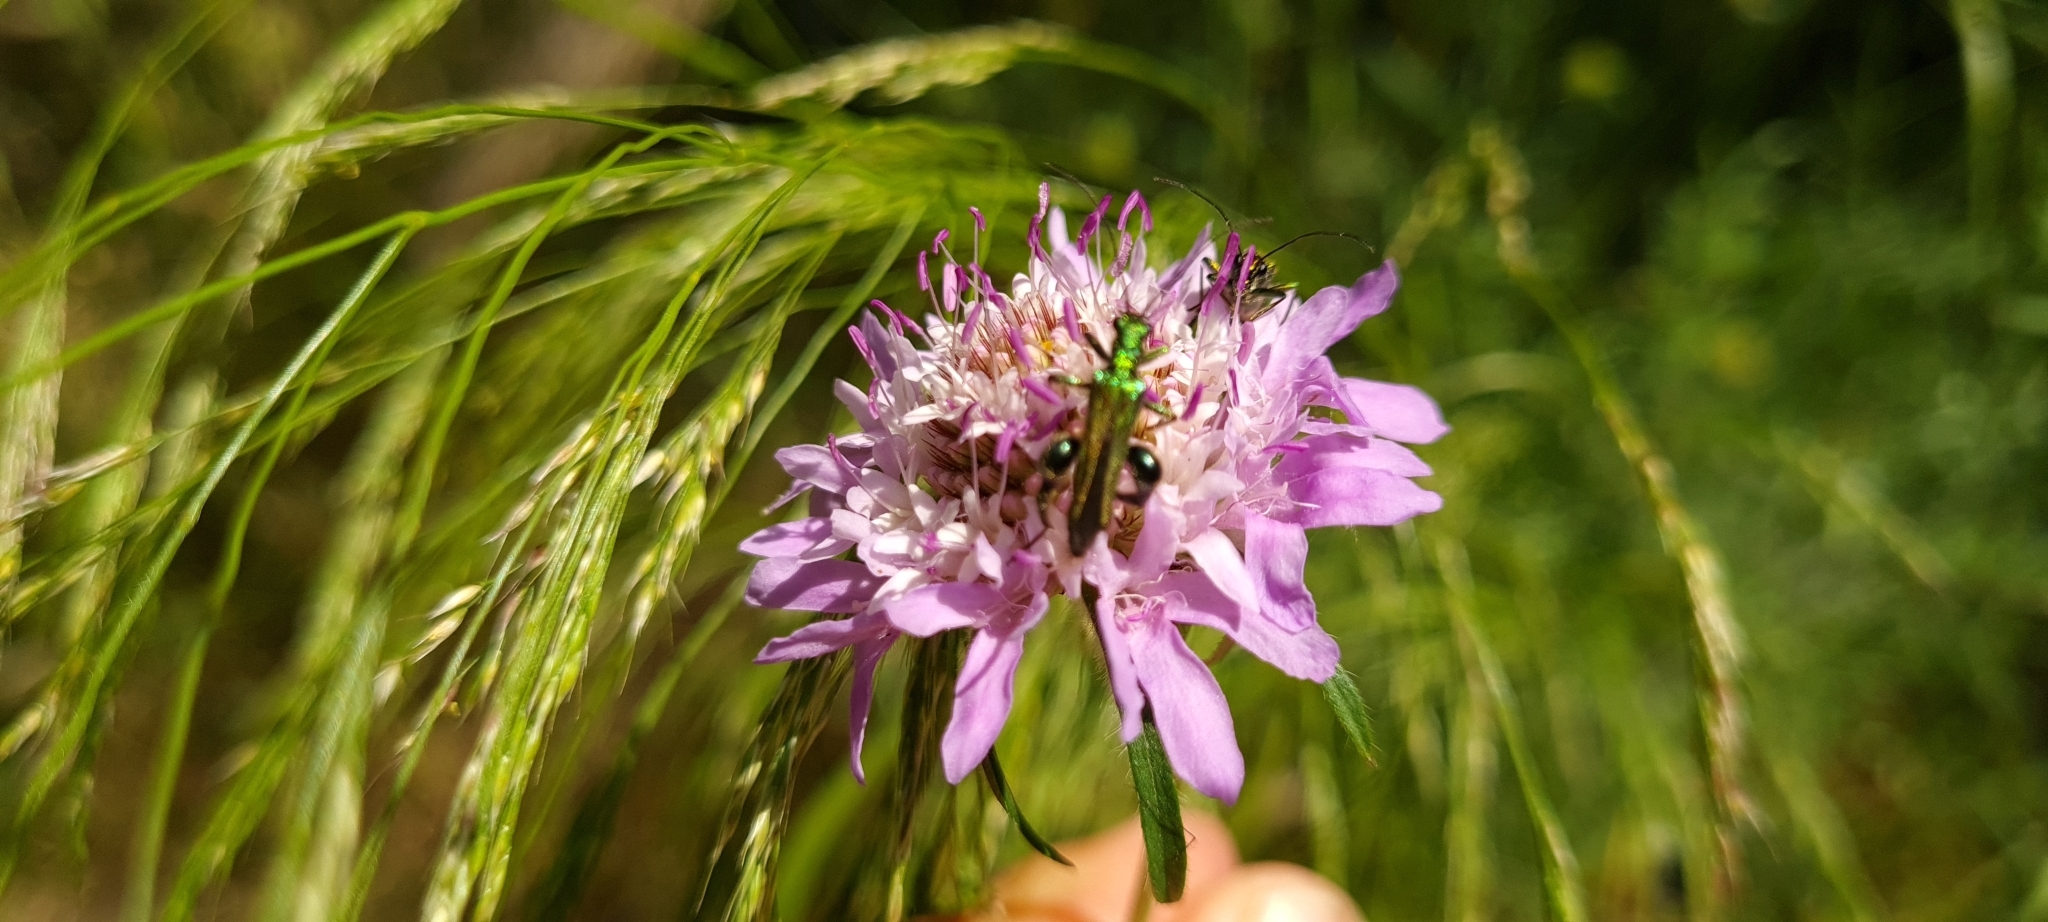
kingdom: Animalia
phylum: Arthropoda
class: Insecta
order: Coleoptera
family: Oedemeridae
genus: Oedemera
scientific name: Oedemera nobilis
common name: Swollen-thighed beetle
